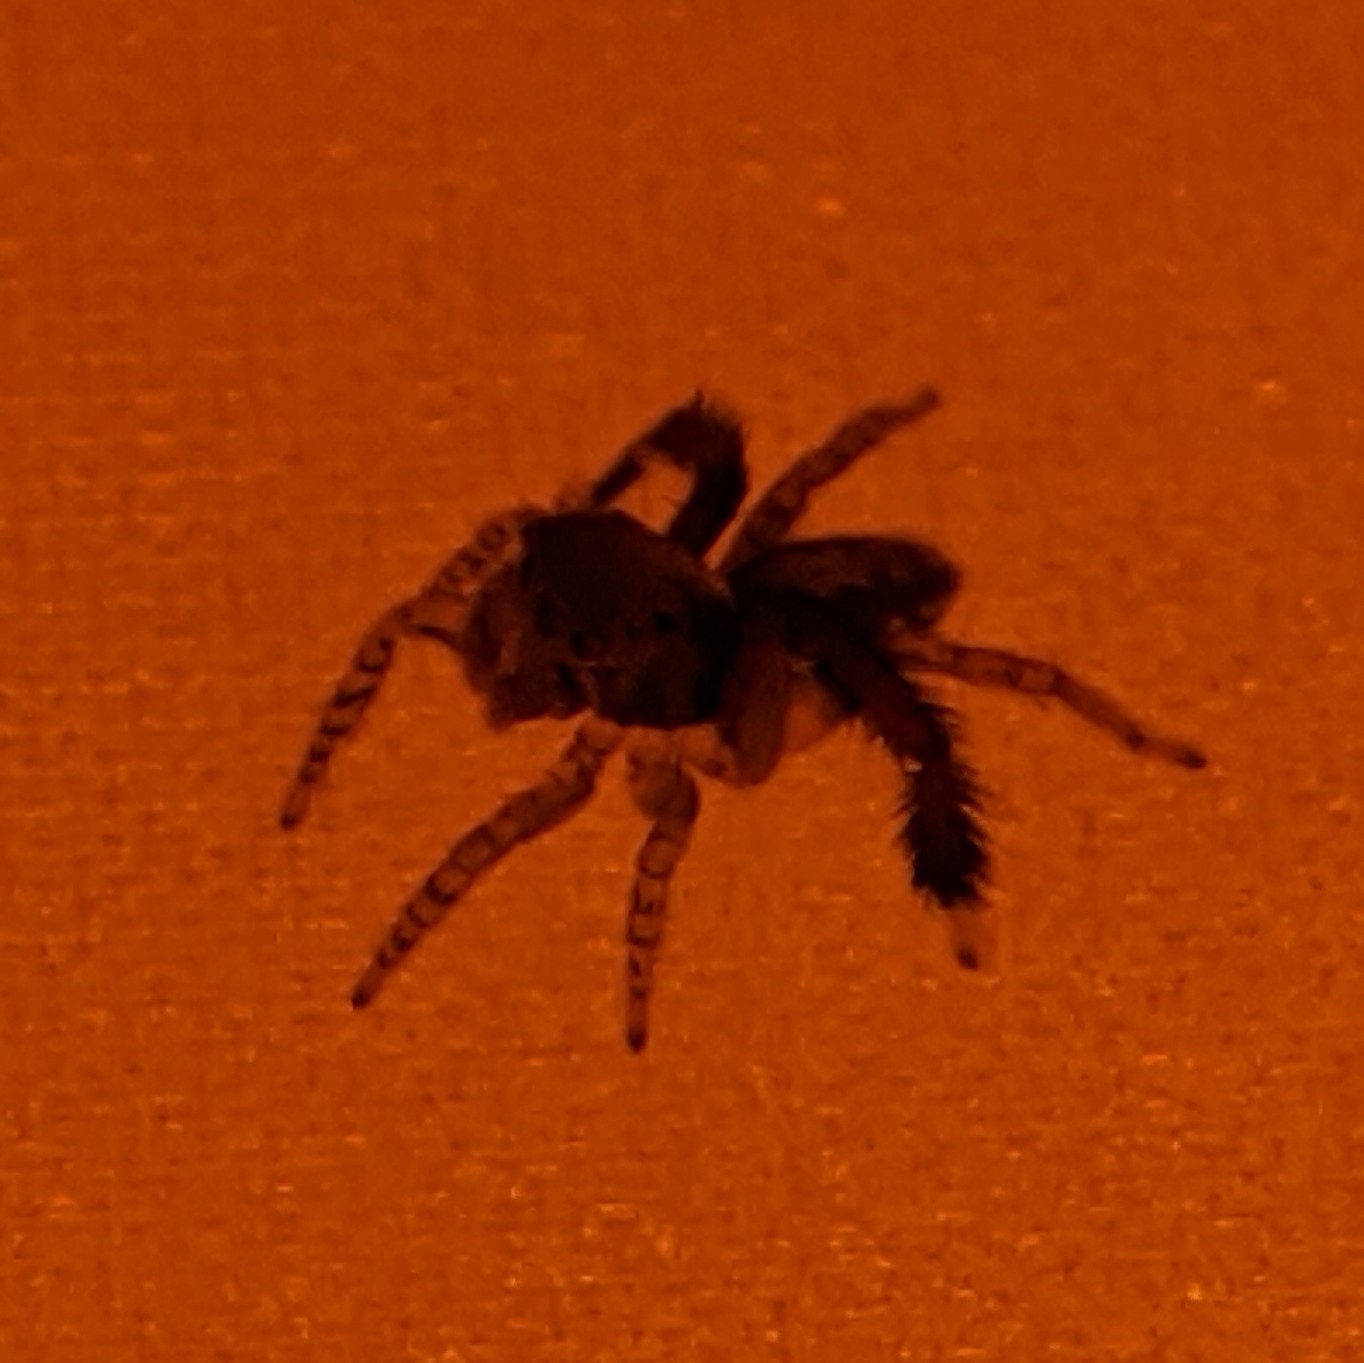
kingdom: Animalia
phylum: Arthropoda
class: Arachnida
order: Araneae
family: Salticidae
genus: Saitis
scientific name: Saitis barbipes
